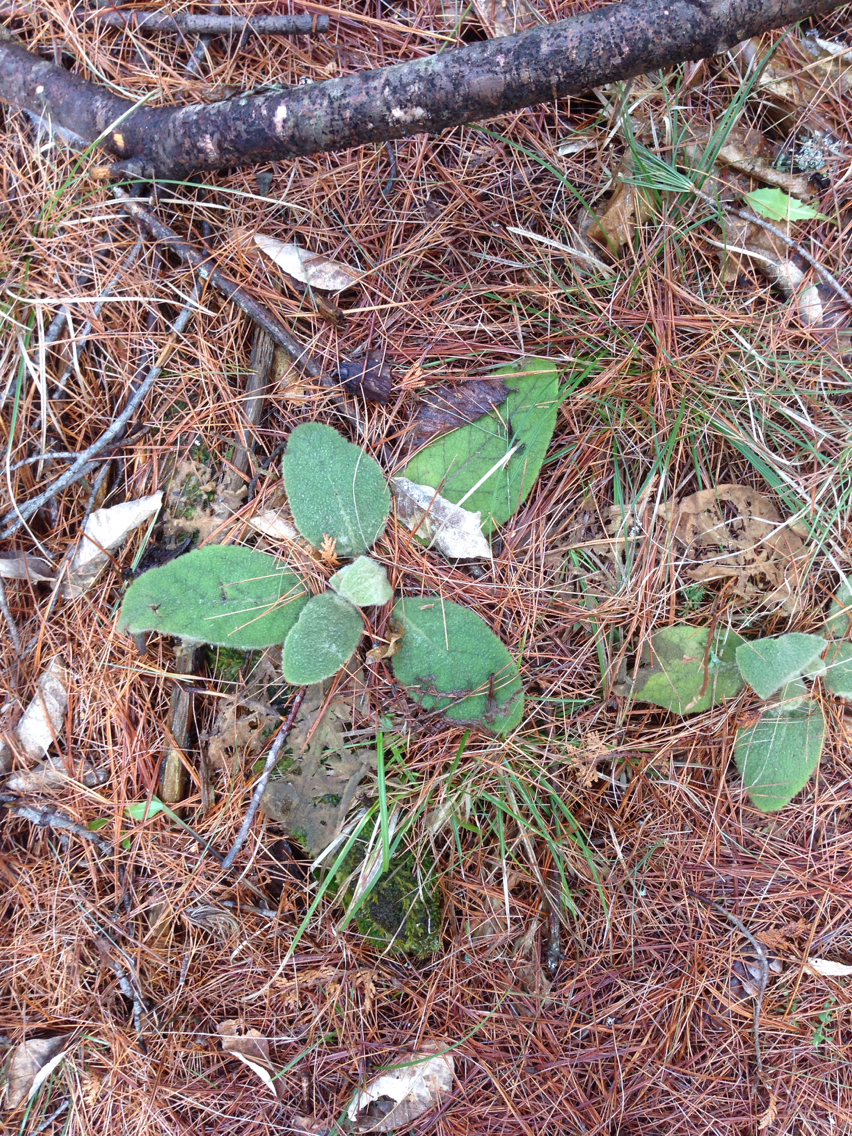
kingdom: Plantae
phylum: Tracheophyta
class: Magnoliopsida
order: Lamiales
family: Scrophulariaceae
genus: Verbascum
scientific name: Verbascum thapsus
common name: Common mullein
